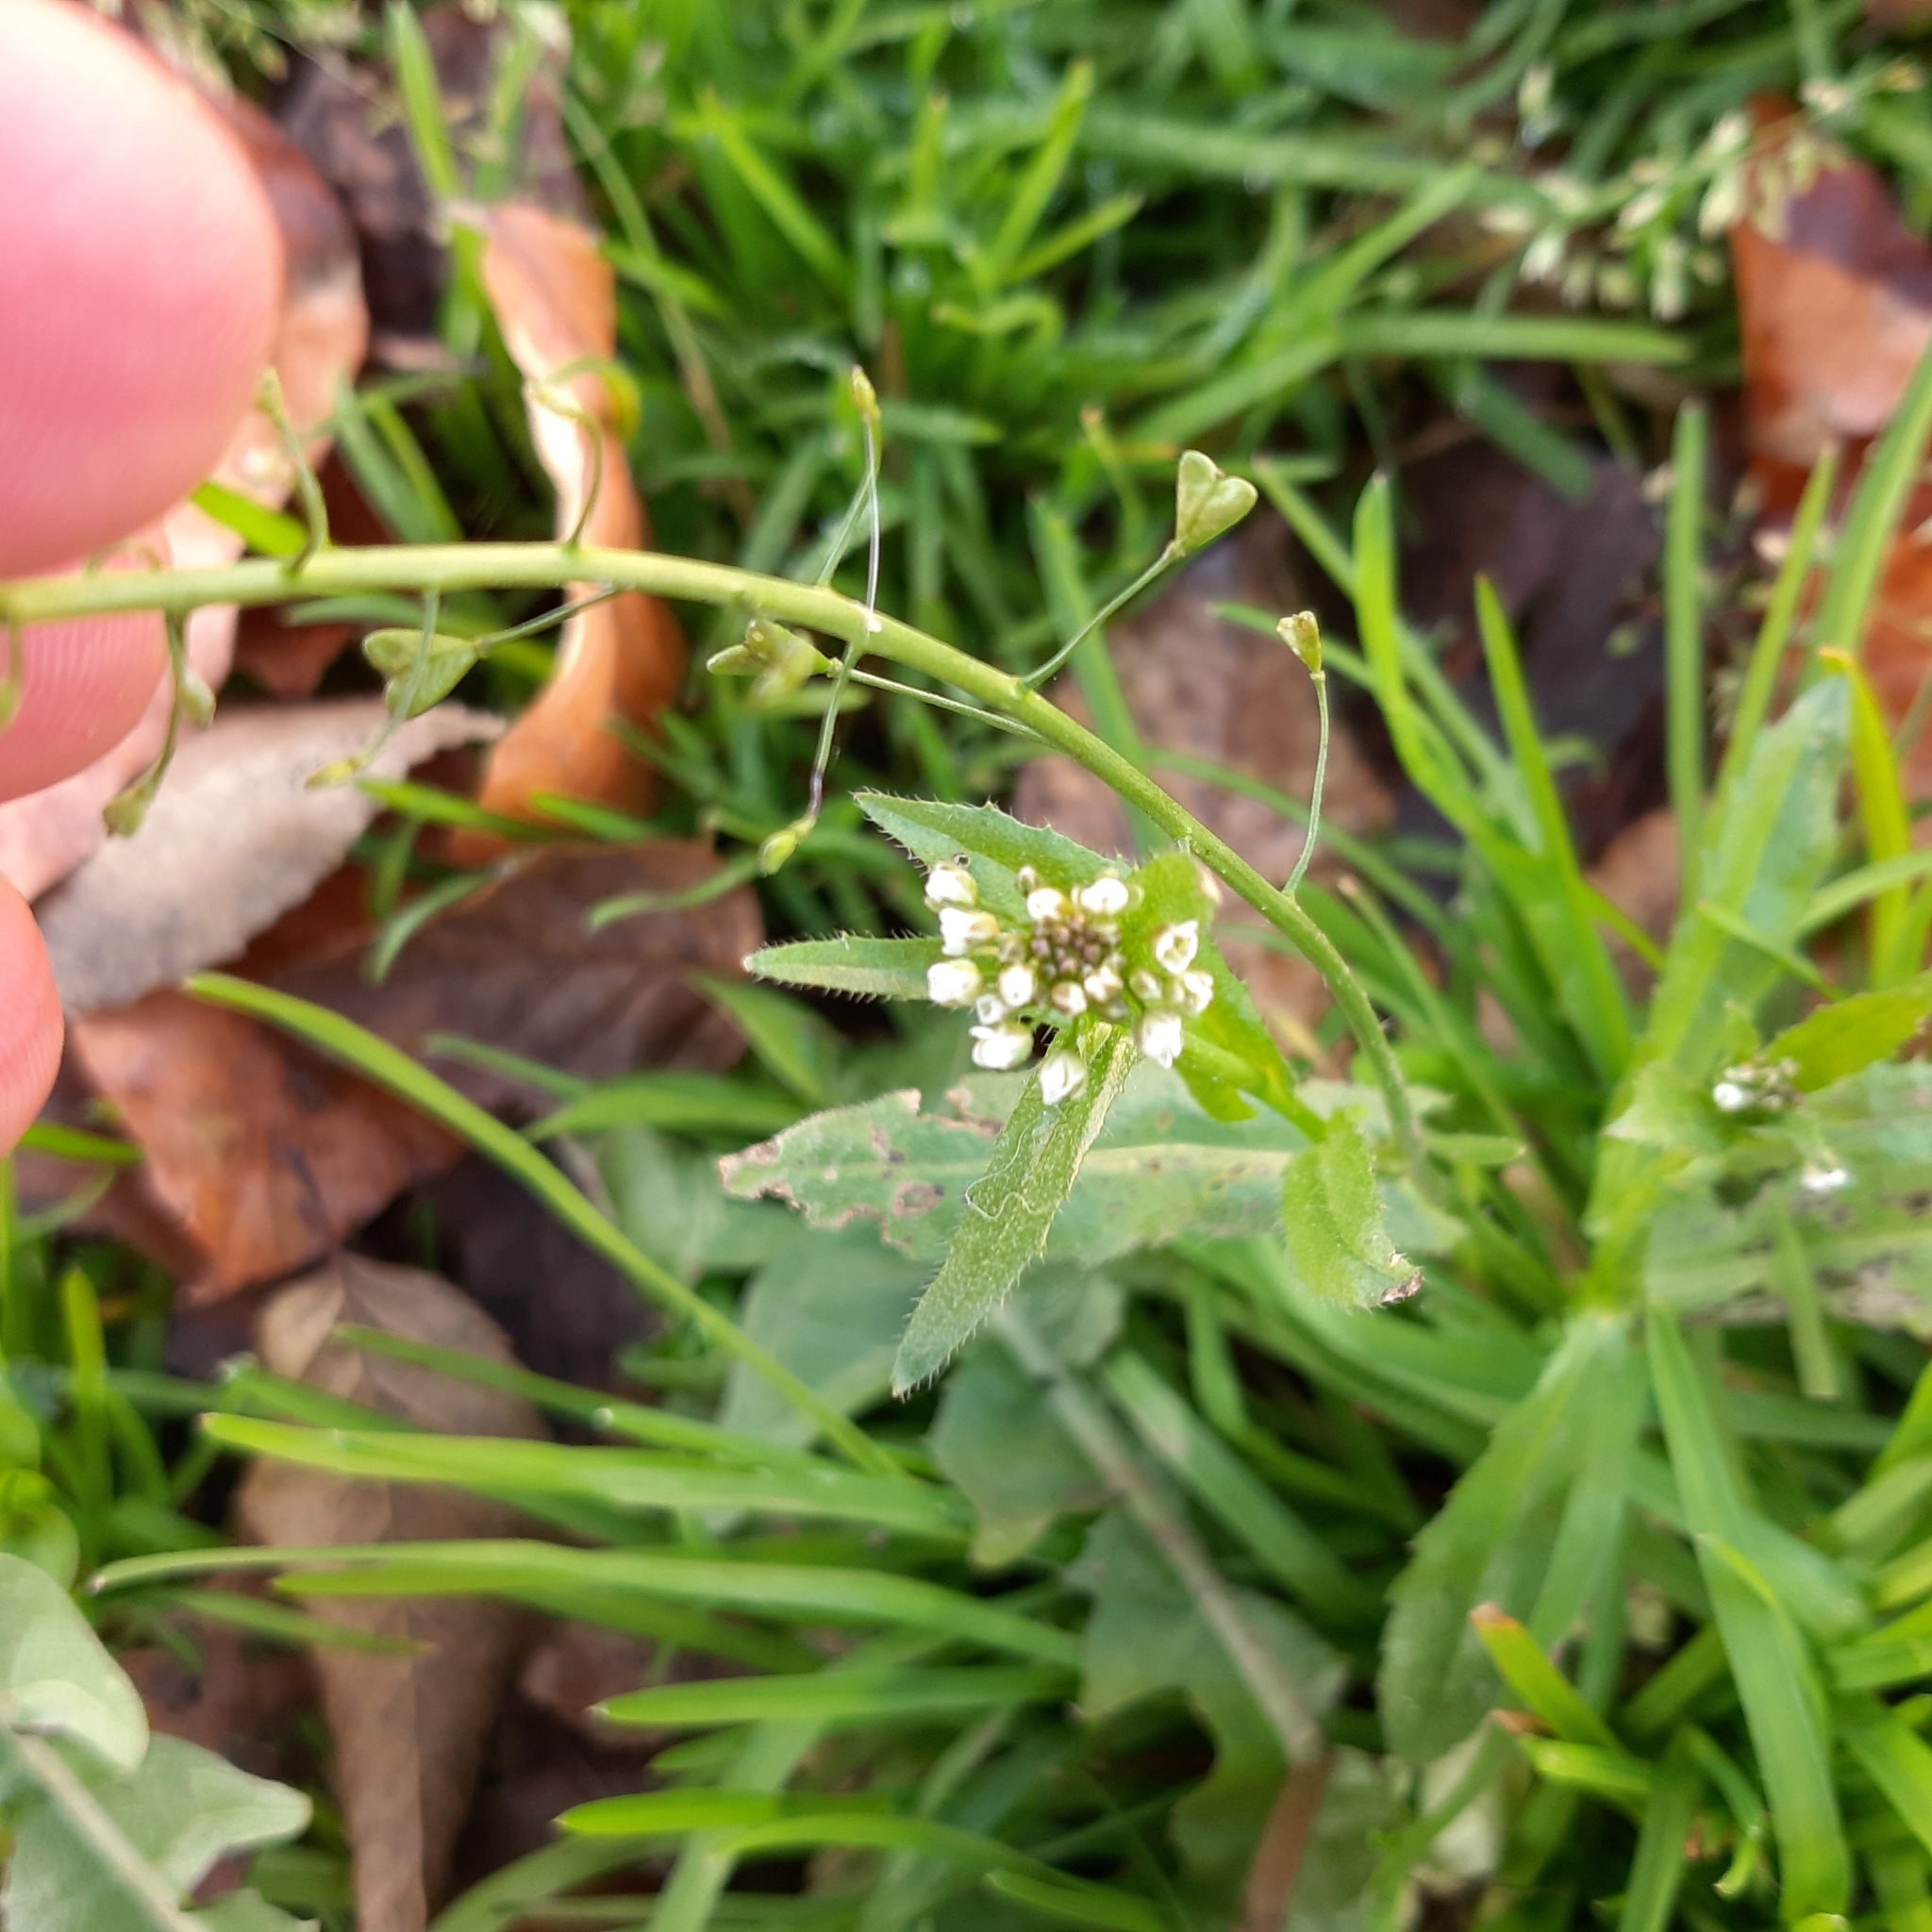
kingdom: Plantae
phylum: Tracheophyta
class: Magnoliopsida
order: Brassicales
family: Brassicaceae
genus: Capsella
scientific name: Capsella bursa-pastoris
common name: Shepherd's purse
